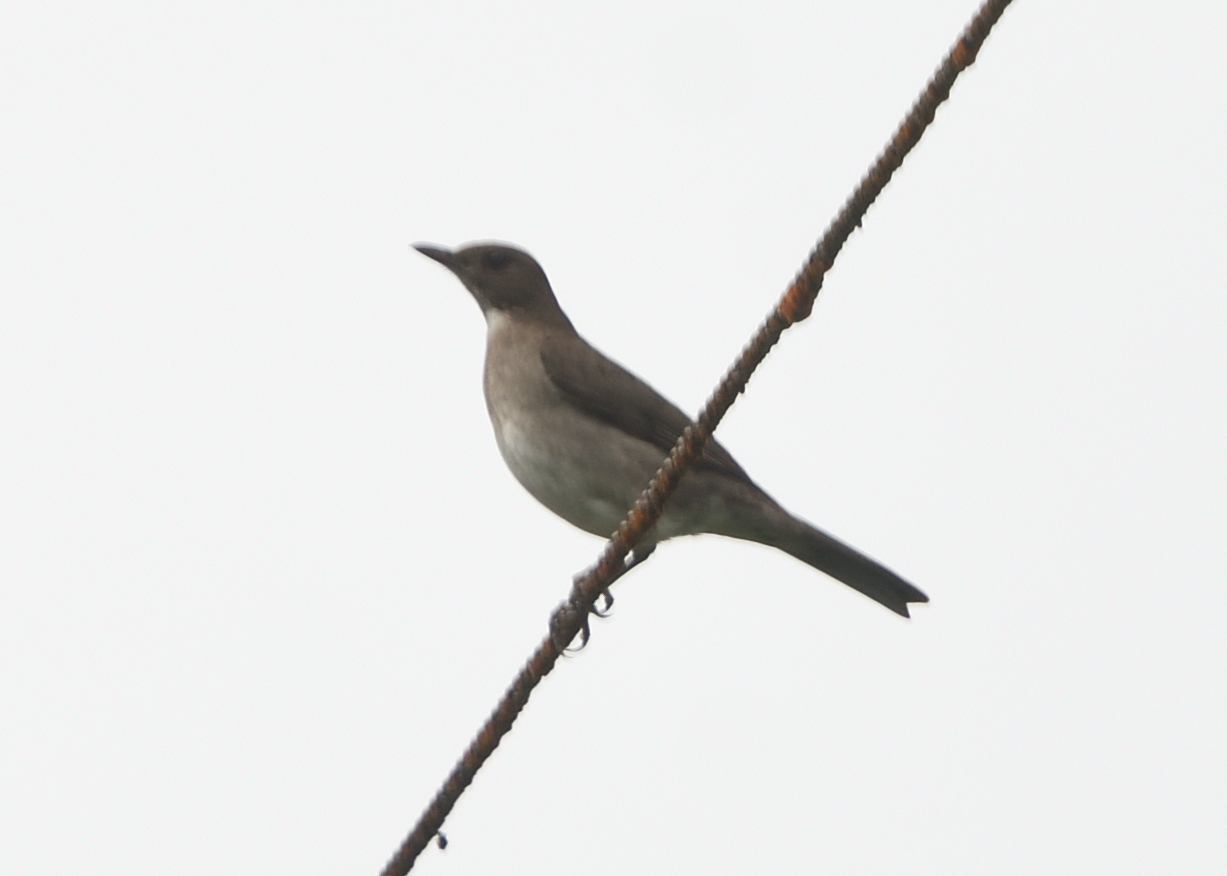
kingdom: Animalia
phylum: Chordata
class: Aves
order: Passeriformes
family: Turdidae
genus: Turdus
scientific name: Turdus ignobilis
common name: Black-billed thrush
